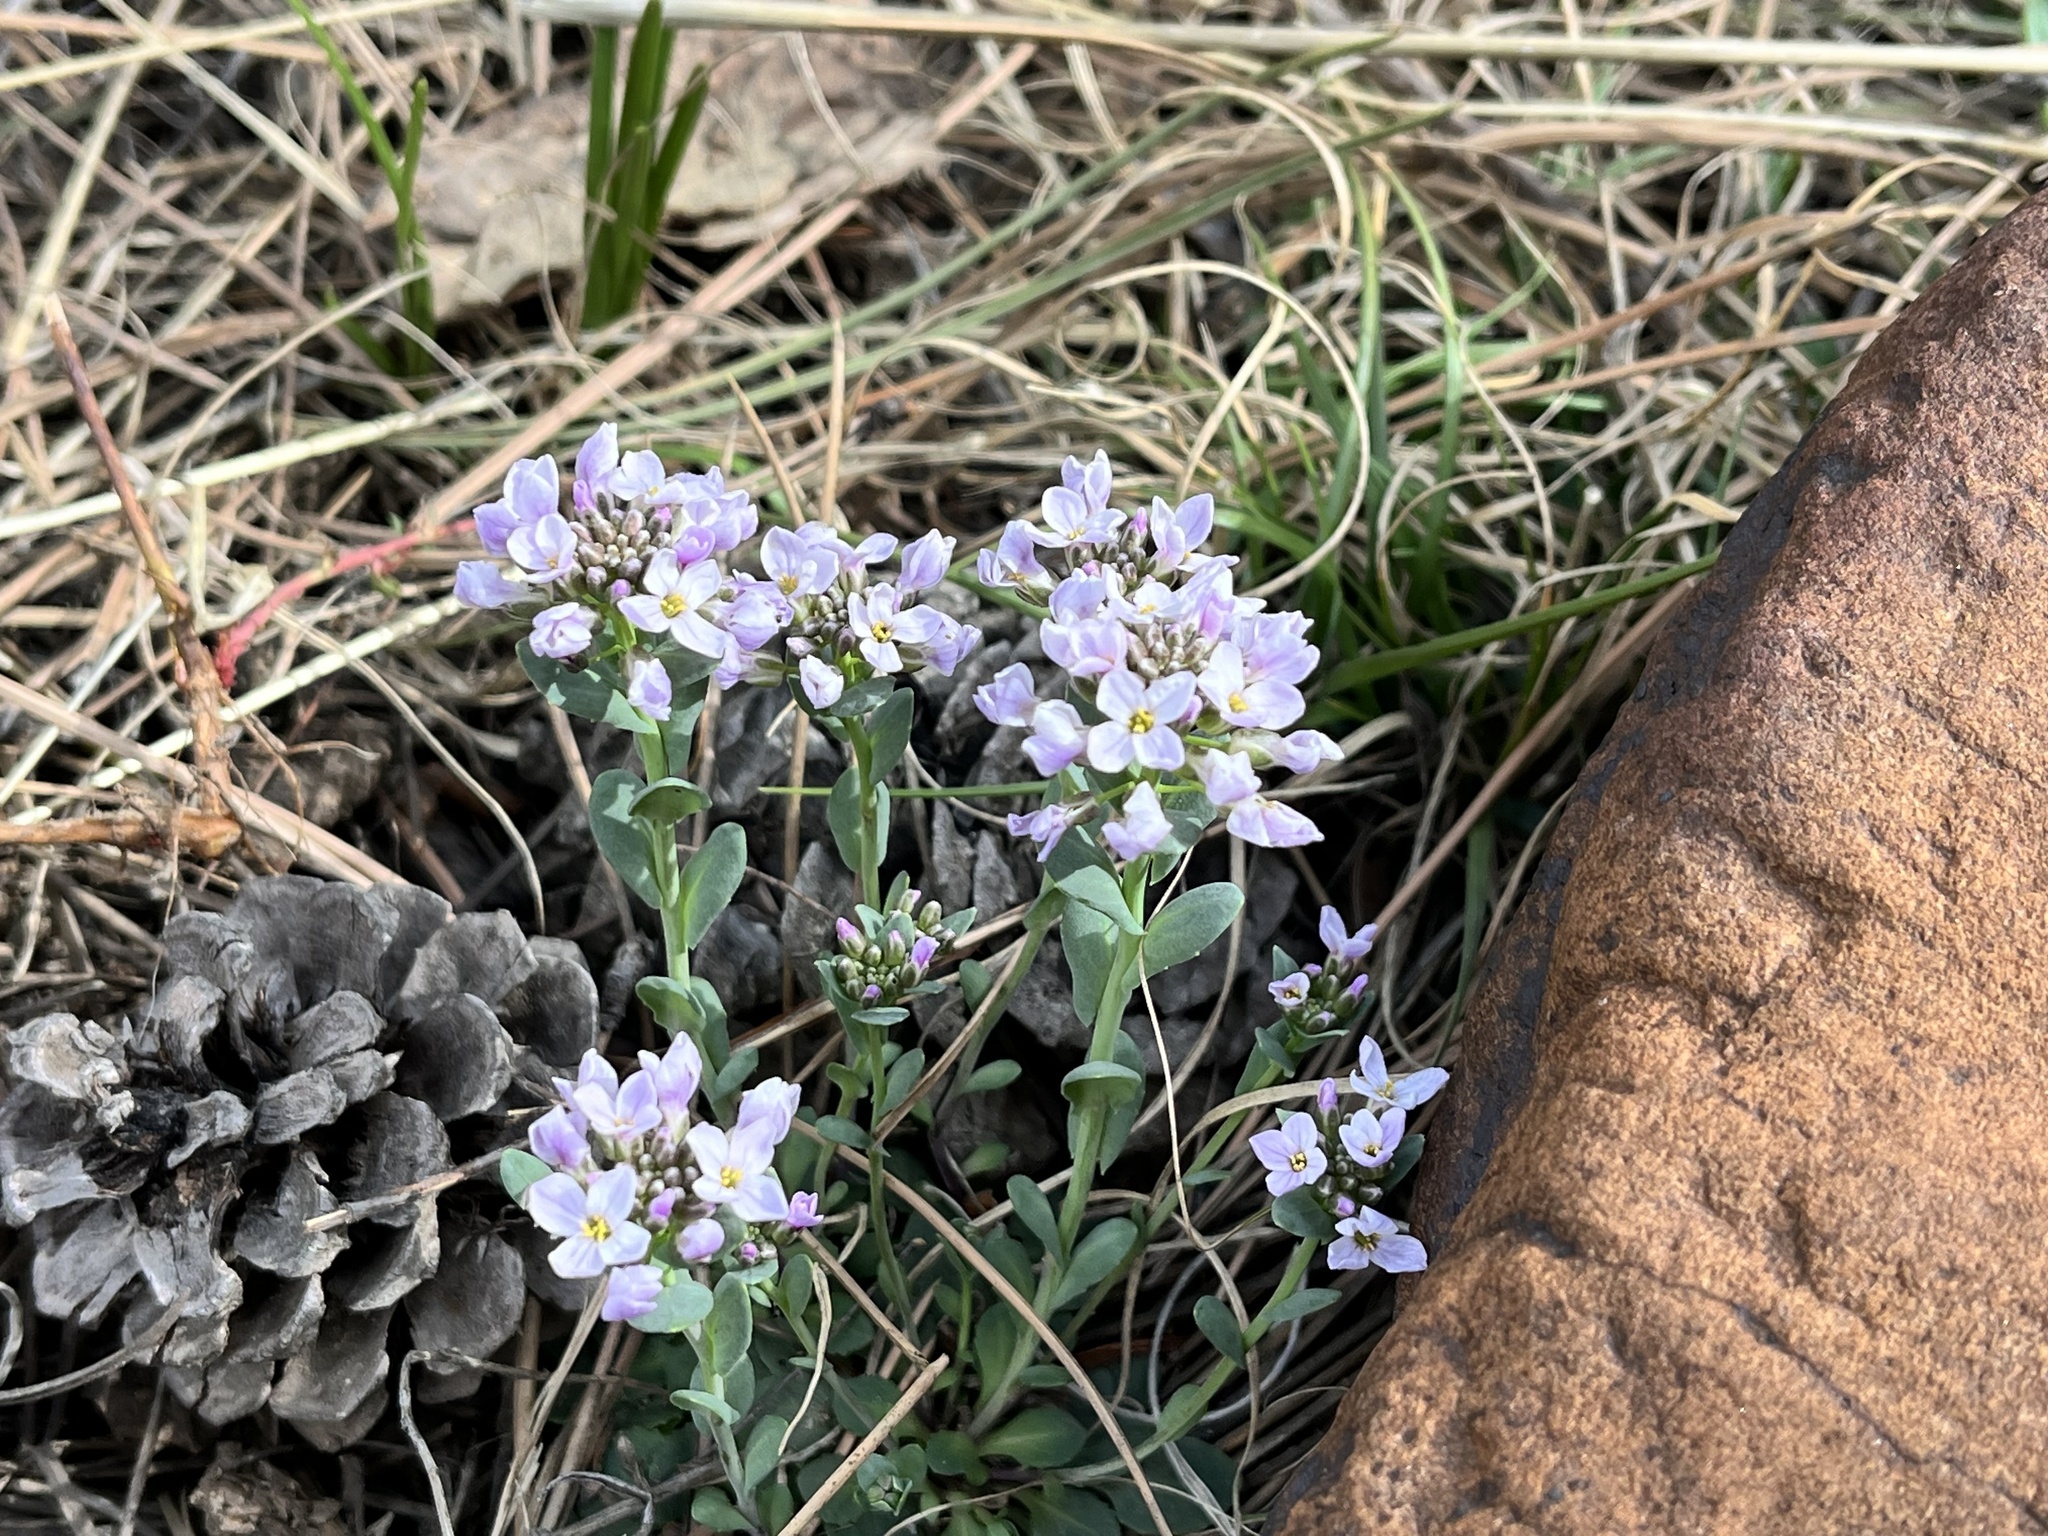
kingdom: Plantae
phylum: Tracheophyta
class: Magnoliopsida
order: Brassicales
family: Brassicaceae
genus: Noccaea
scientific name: Noccaea fendleri
